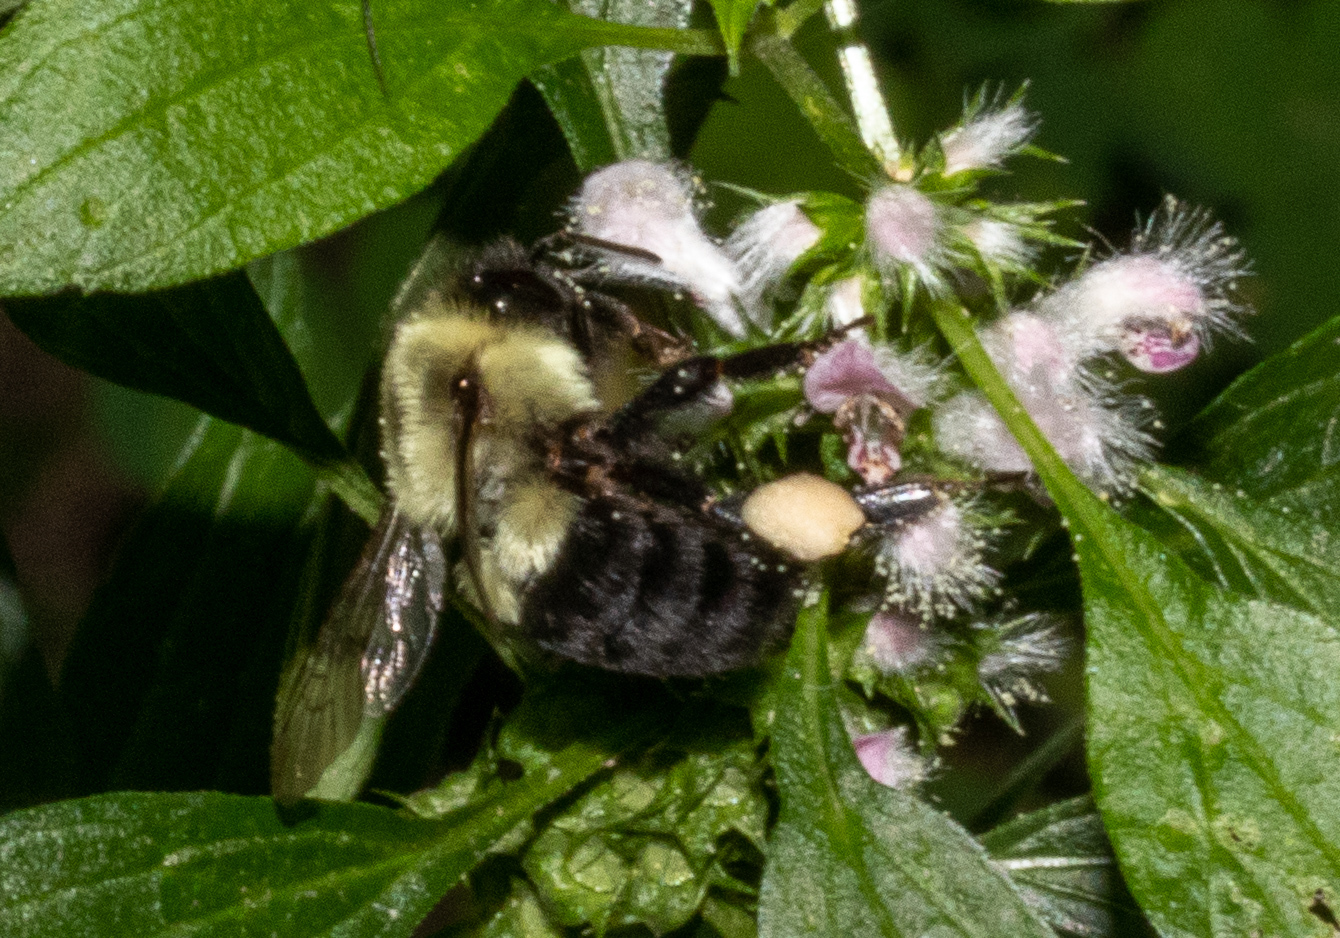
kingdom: Animalia
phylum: Arthropoda
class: Insecta
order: Hymenoptera
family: Apidae
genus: Bombus
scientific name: Bombus impatiens
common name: Common eastern bumble bee
